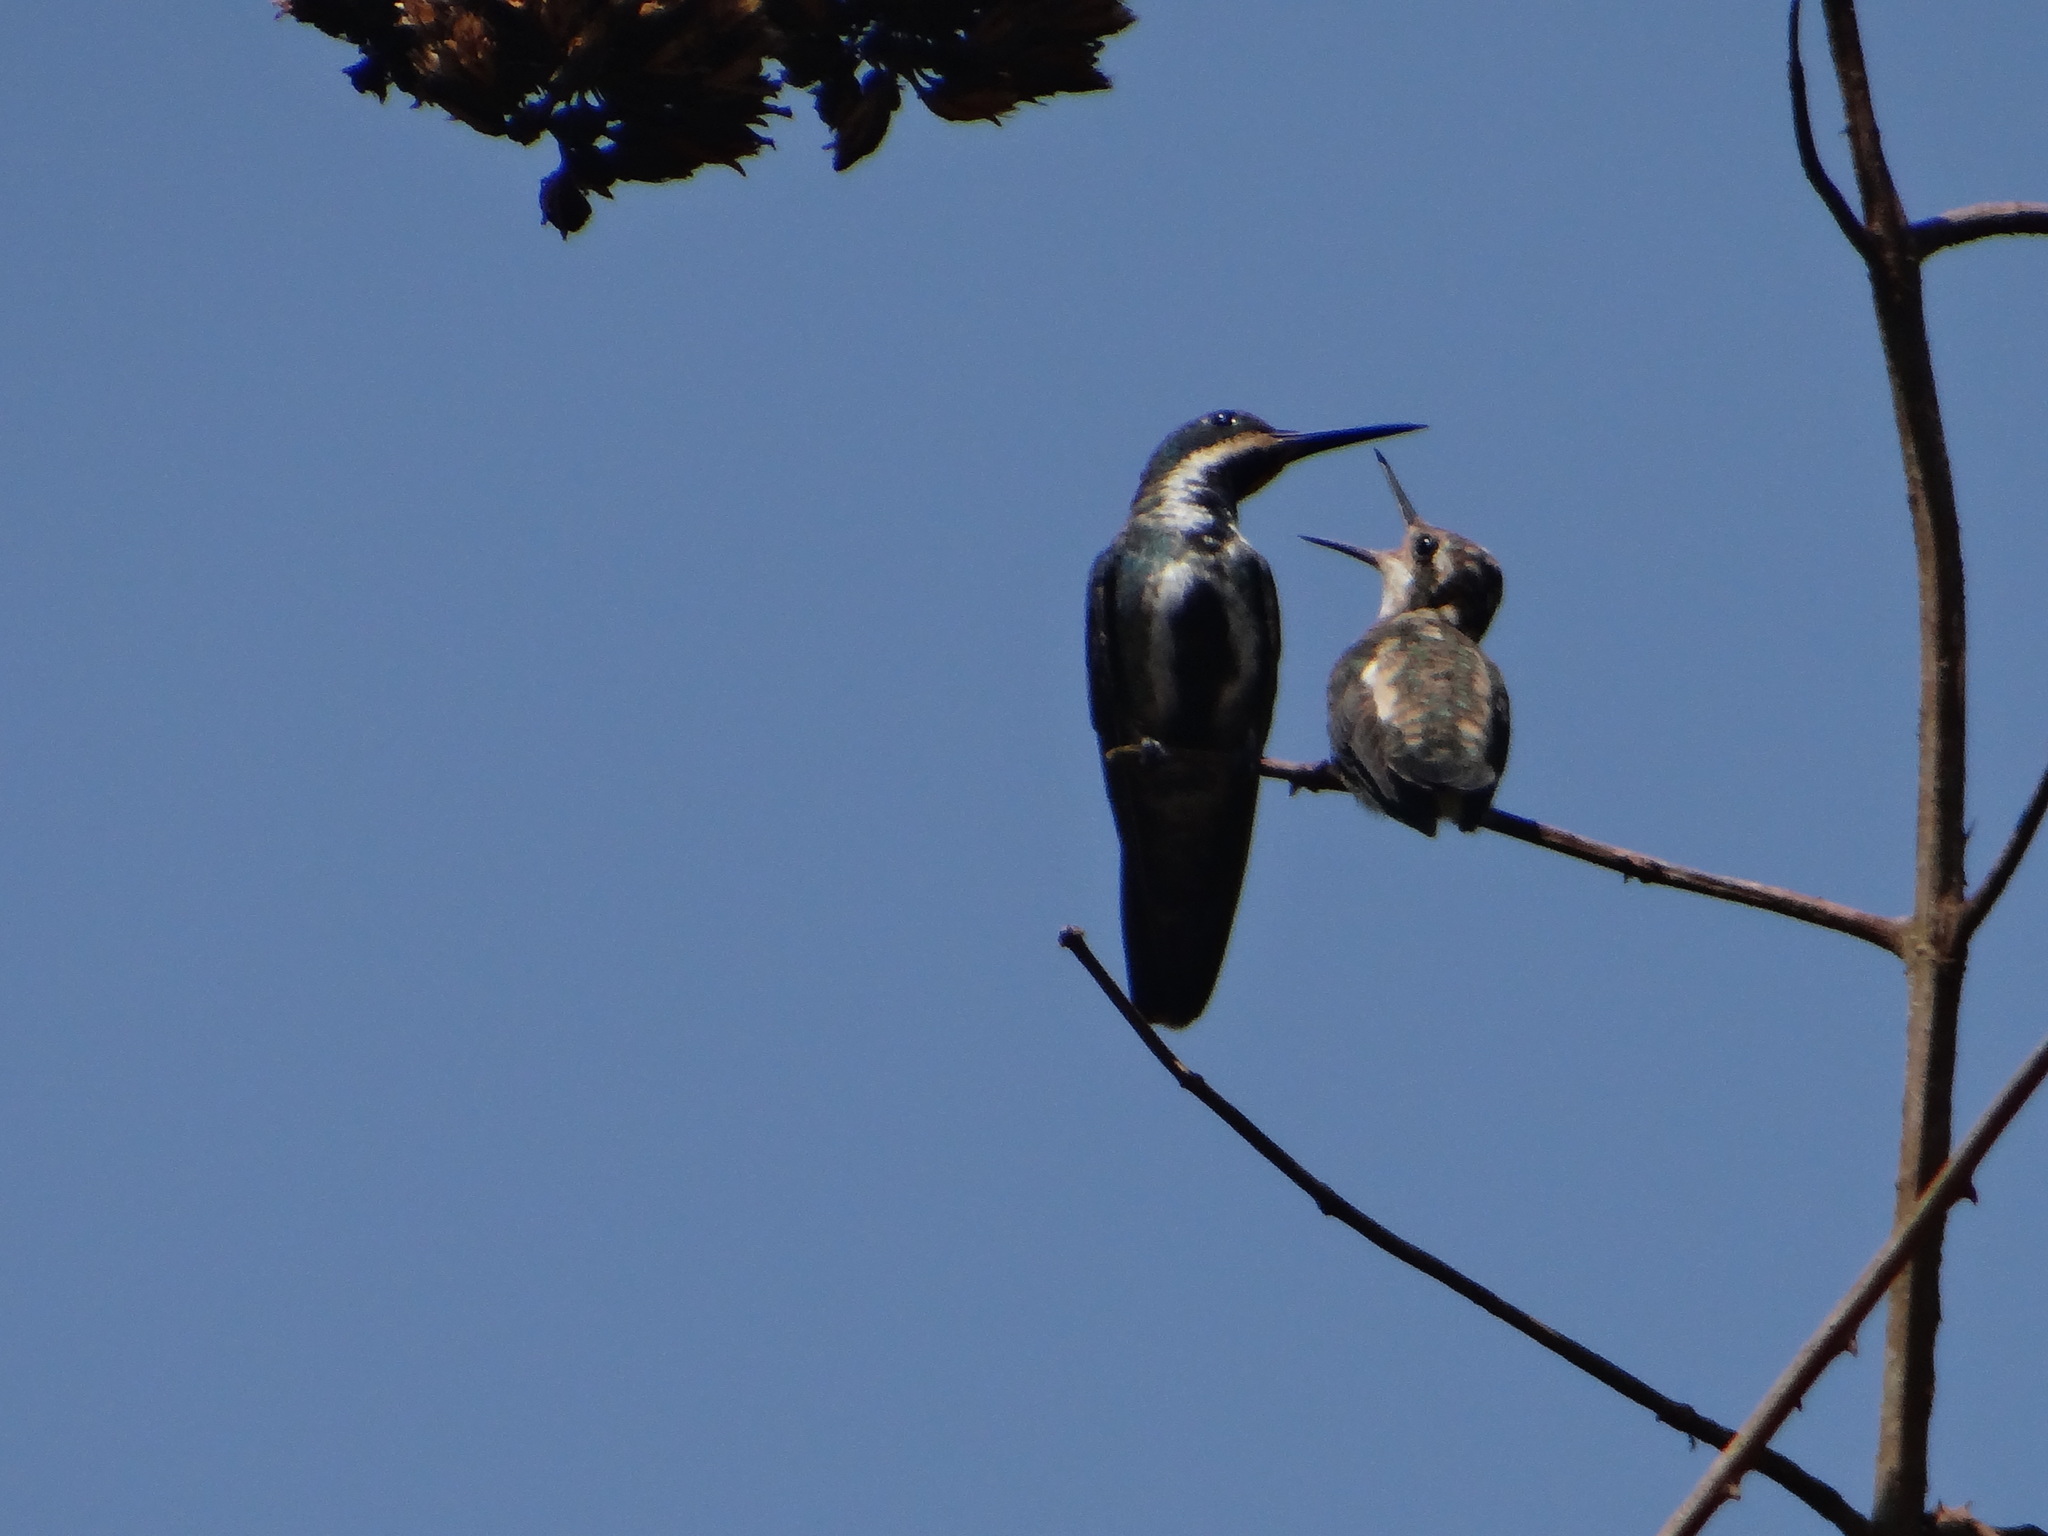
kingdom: Animalia
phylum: Chordata
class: Aves
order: Apodiformes
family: Trochilidae
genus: Anthracothorax
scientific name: Anthracothorax nigricollis
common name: Black-throated mango
